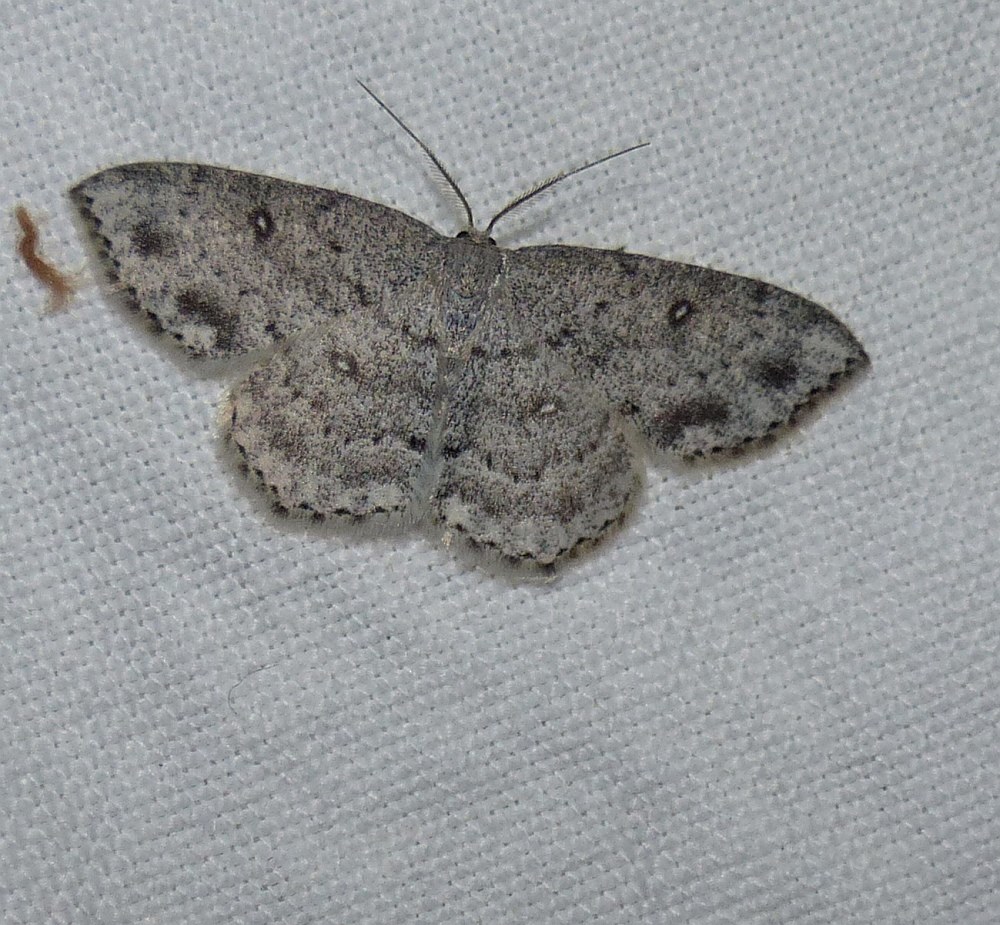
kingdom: Animalia
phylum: Arthropoda
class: Insecta
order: Lepidoptera
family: Geometridae
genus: Cyclophora
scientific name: Cyclophora pendulinaria
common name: Sweet fern geometer
